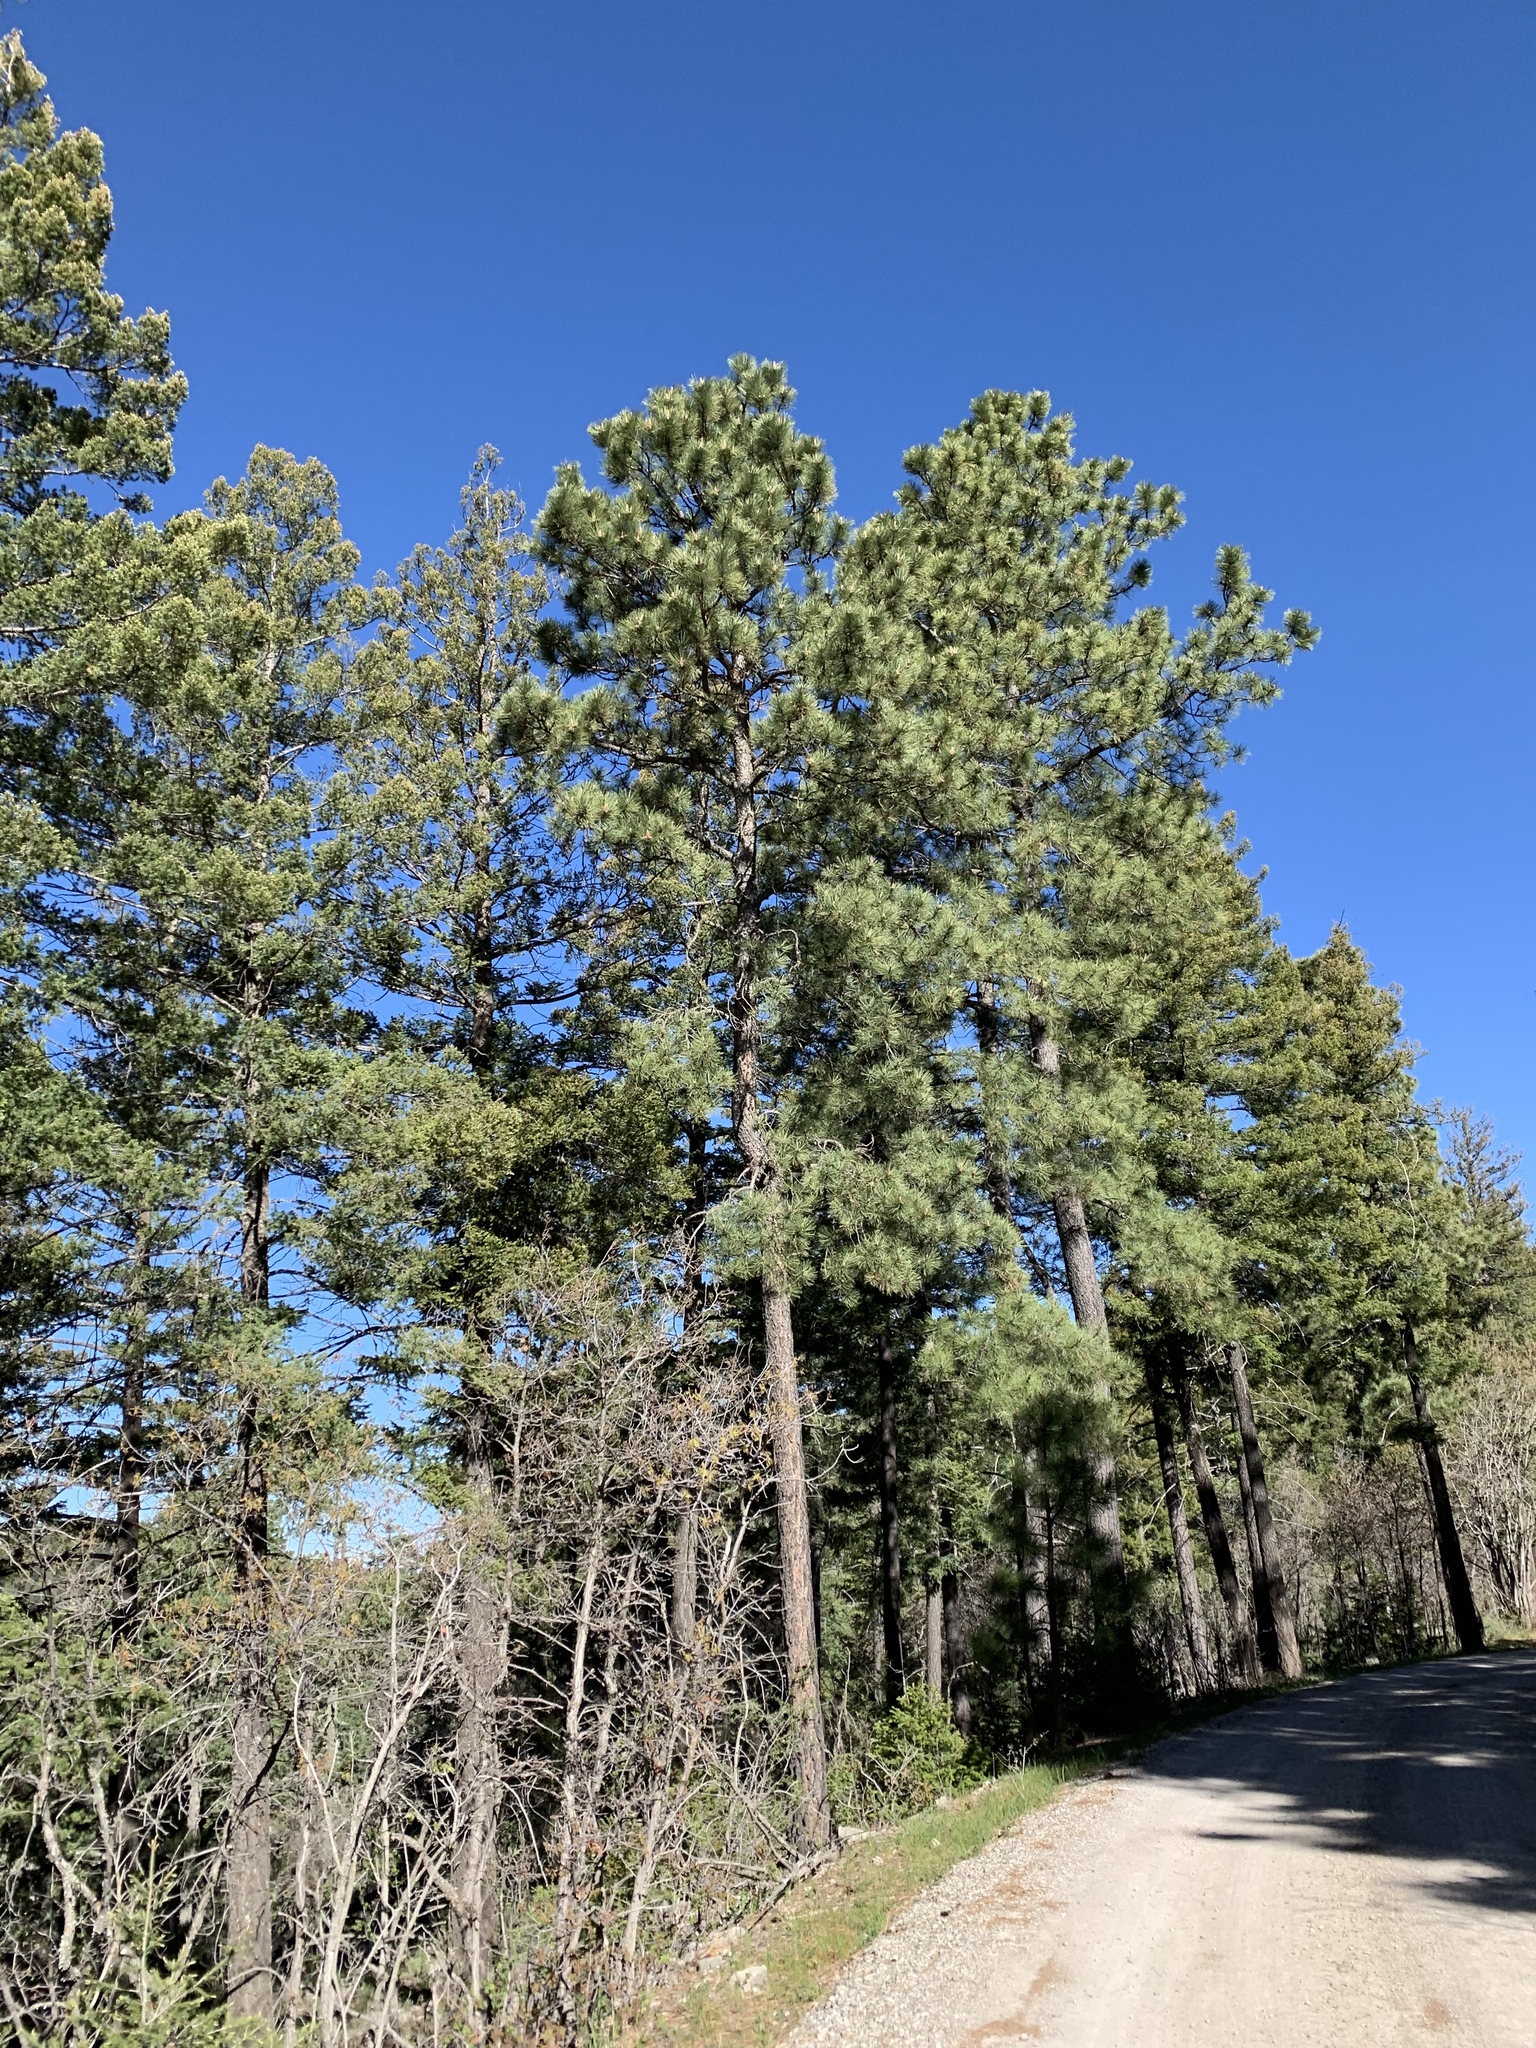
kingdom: Plantae
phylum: Tracheophyta
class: Pinopsida
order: Pinales
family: Pinaceae
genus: Pinus
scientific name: Pinus ponderosa
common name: Western yellow-pine
